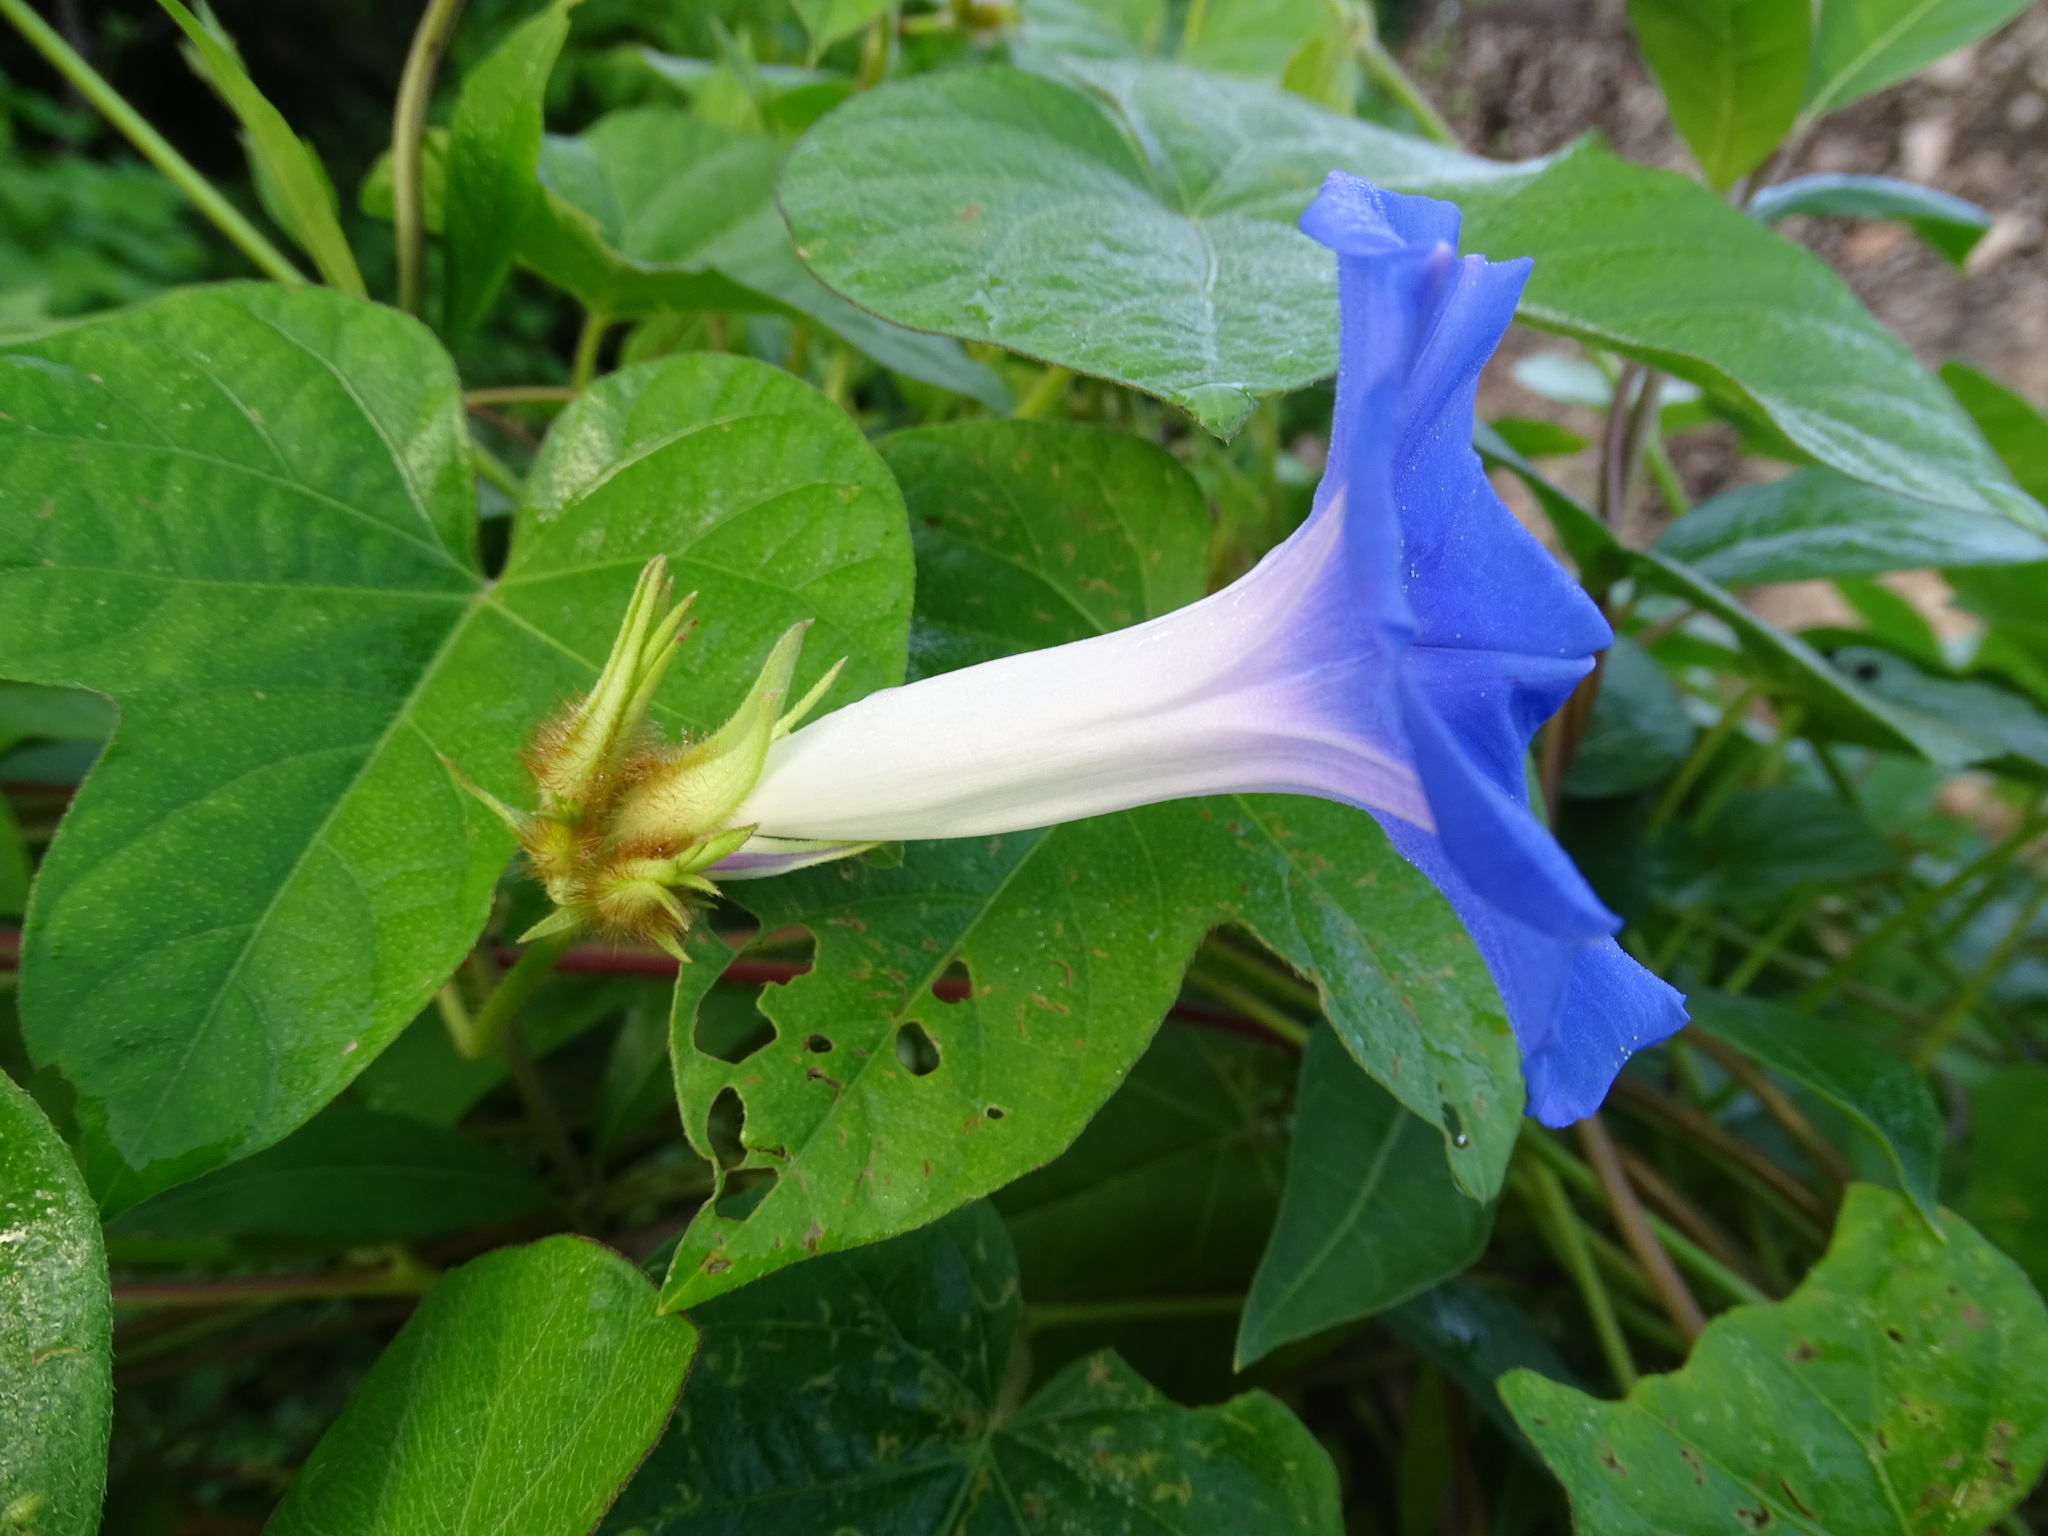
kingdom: Plantae
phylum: Tracheophyta
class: Magnoliopsida
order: Solanales
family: Convolvulaceae
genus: Ipomoea
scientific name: Ipomoea nil
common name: Japanese morning-glory
